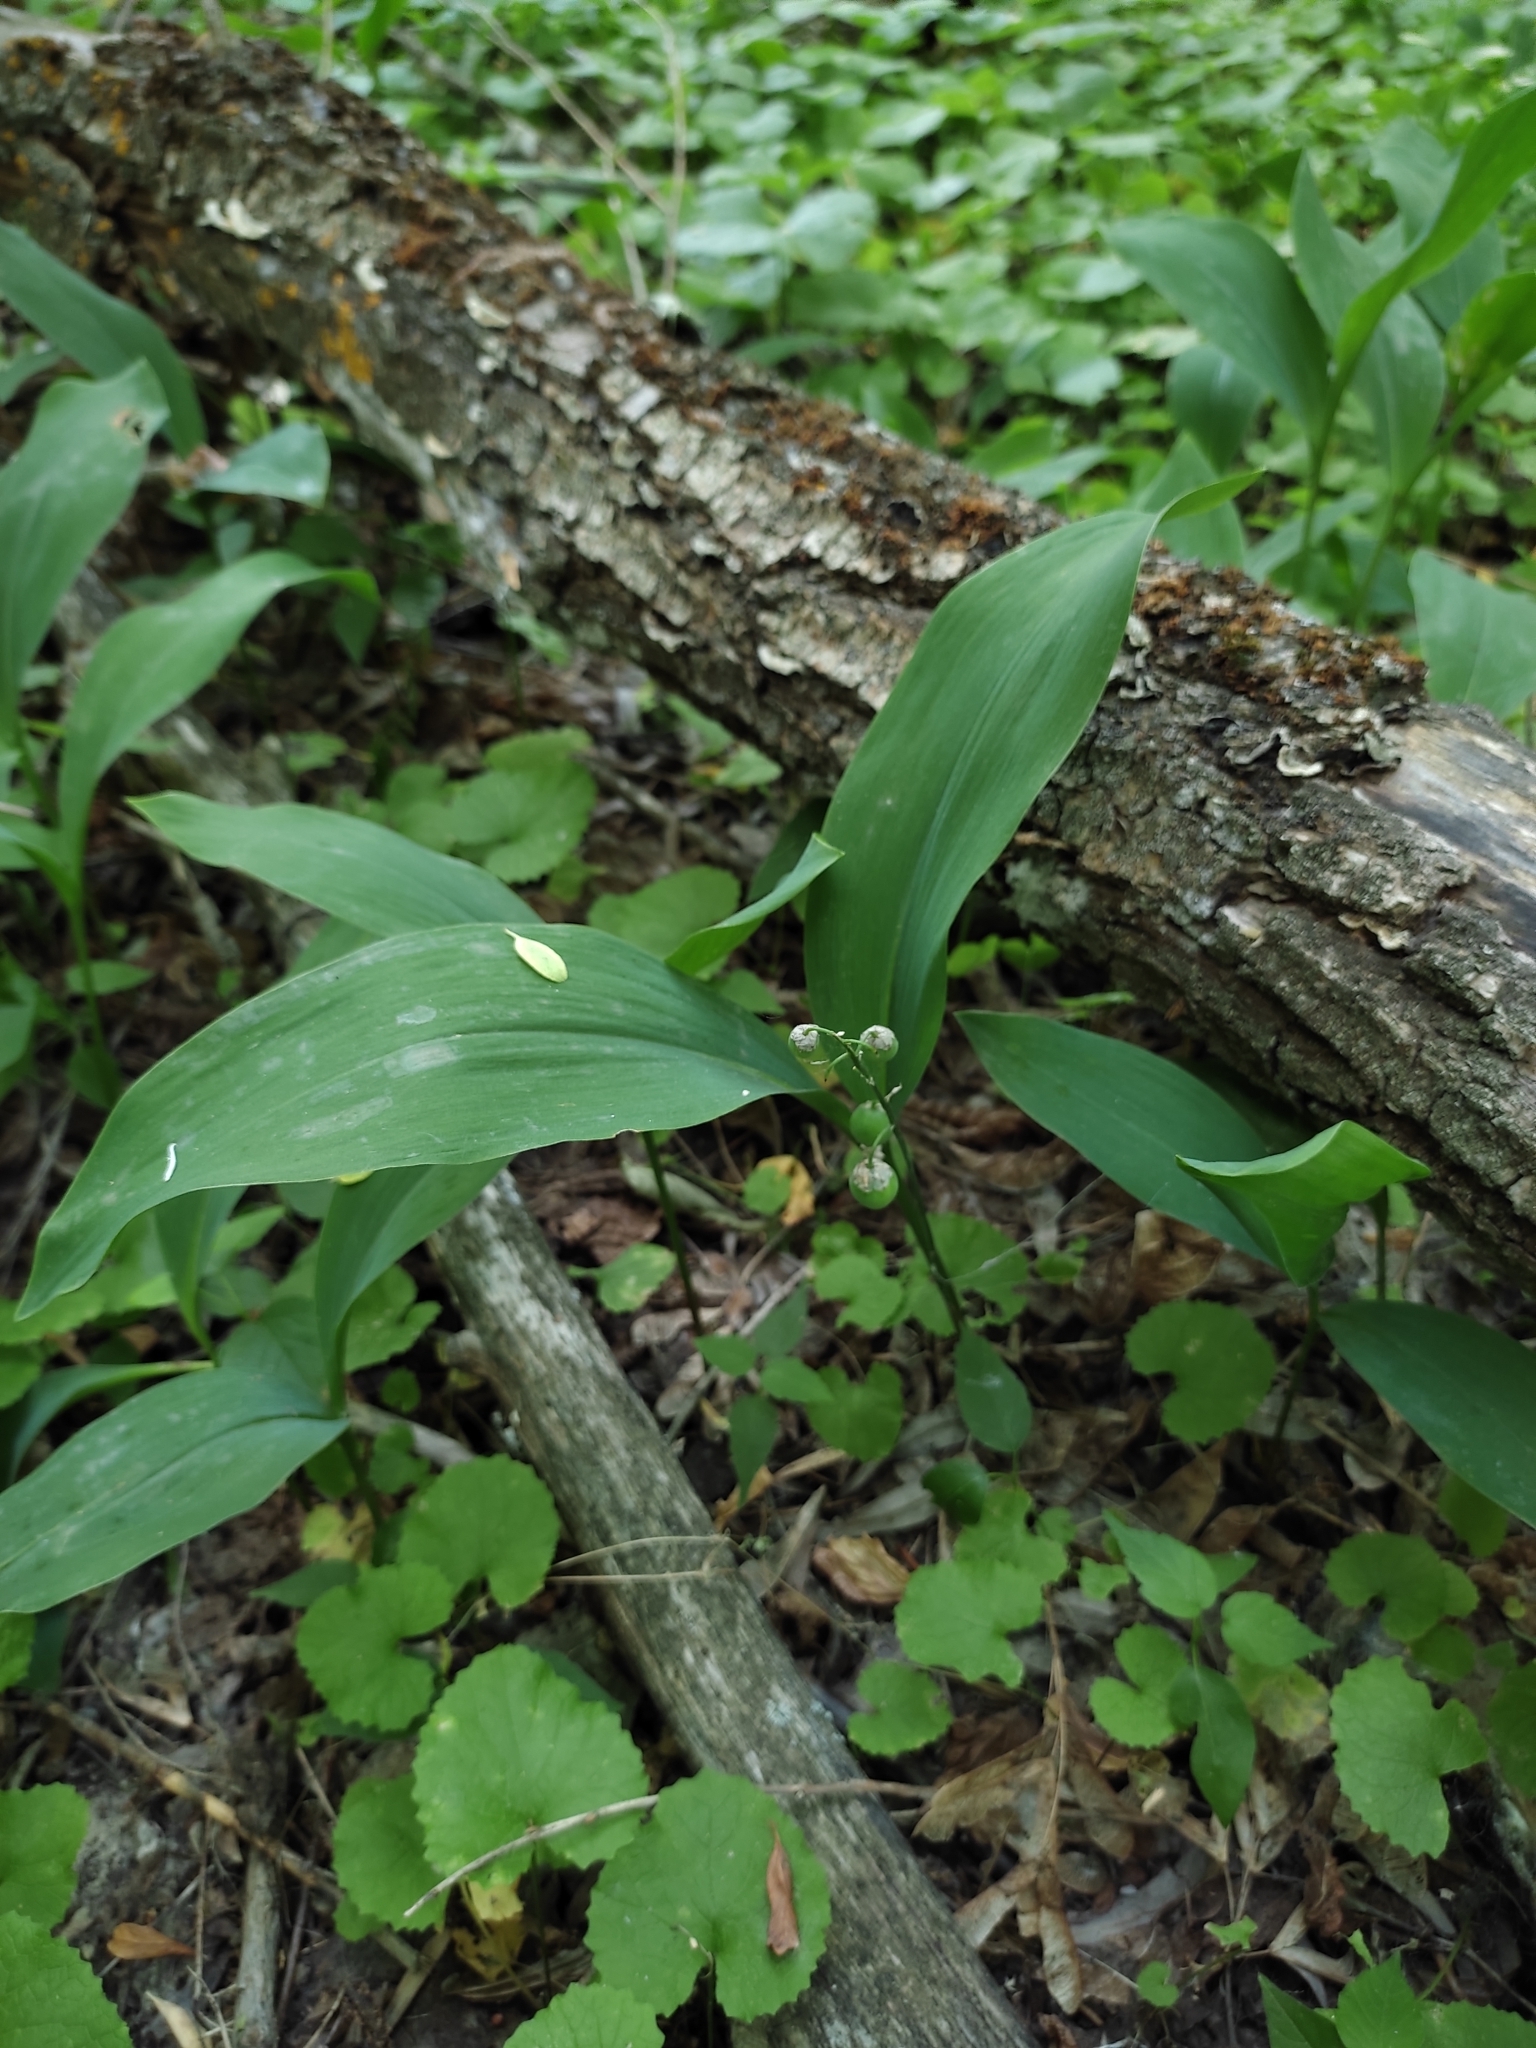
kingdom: Plantae
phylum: Tracheophyta
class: Liliopsida
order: Asparagales
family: Asparagaceae
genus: Convallaria
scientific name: Convallaria majalis
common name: Lily-of-the-valley
